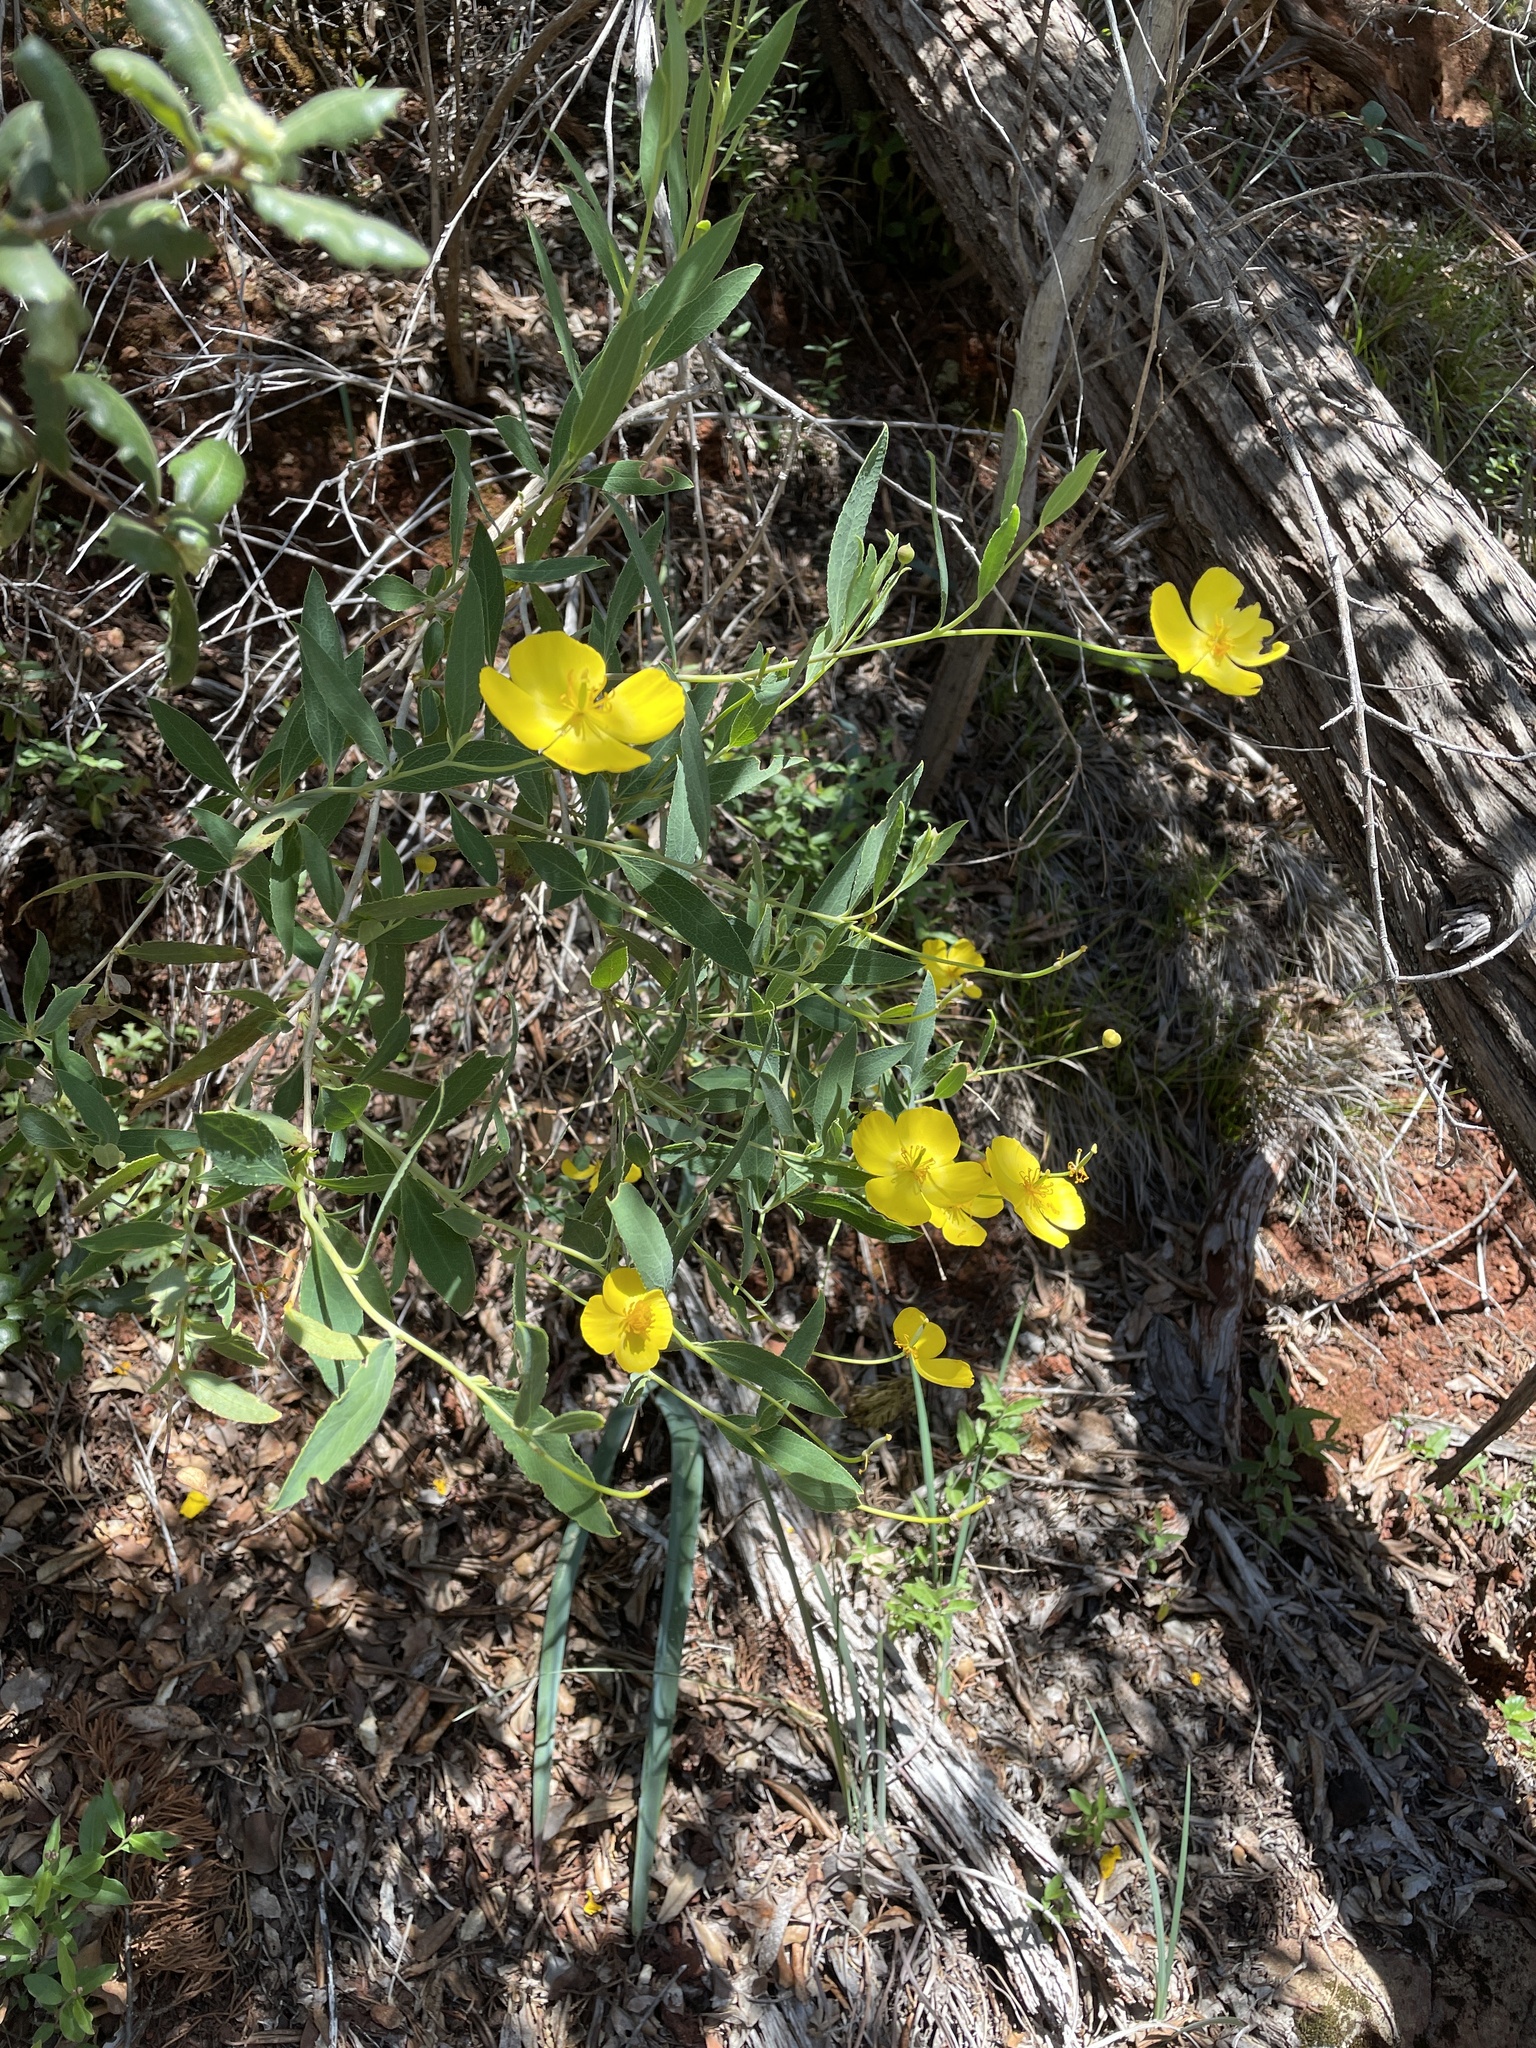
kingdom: Plantae
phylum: Tracheophyta
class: Magnoliopsida
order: Ranunculales
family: Papaveraceae
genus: Dendromecon
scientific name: Dendromecon rigida
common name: Tree poppy
